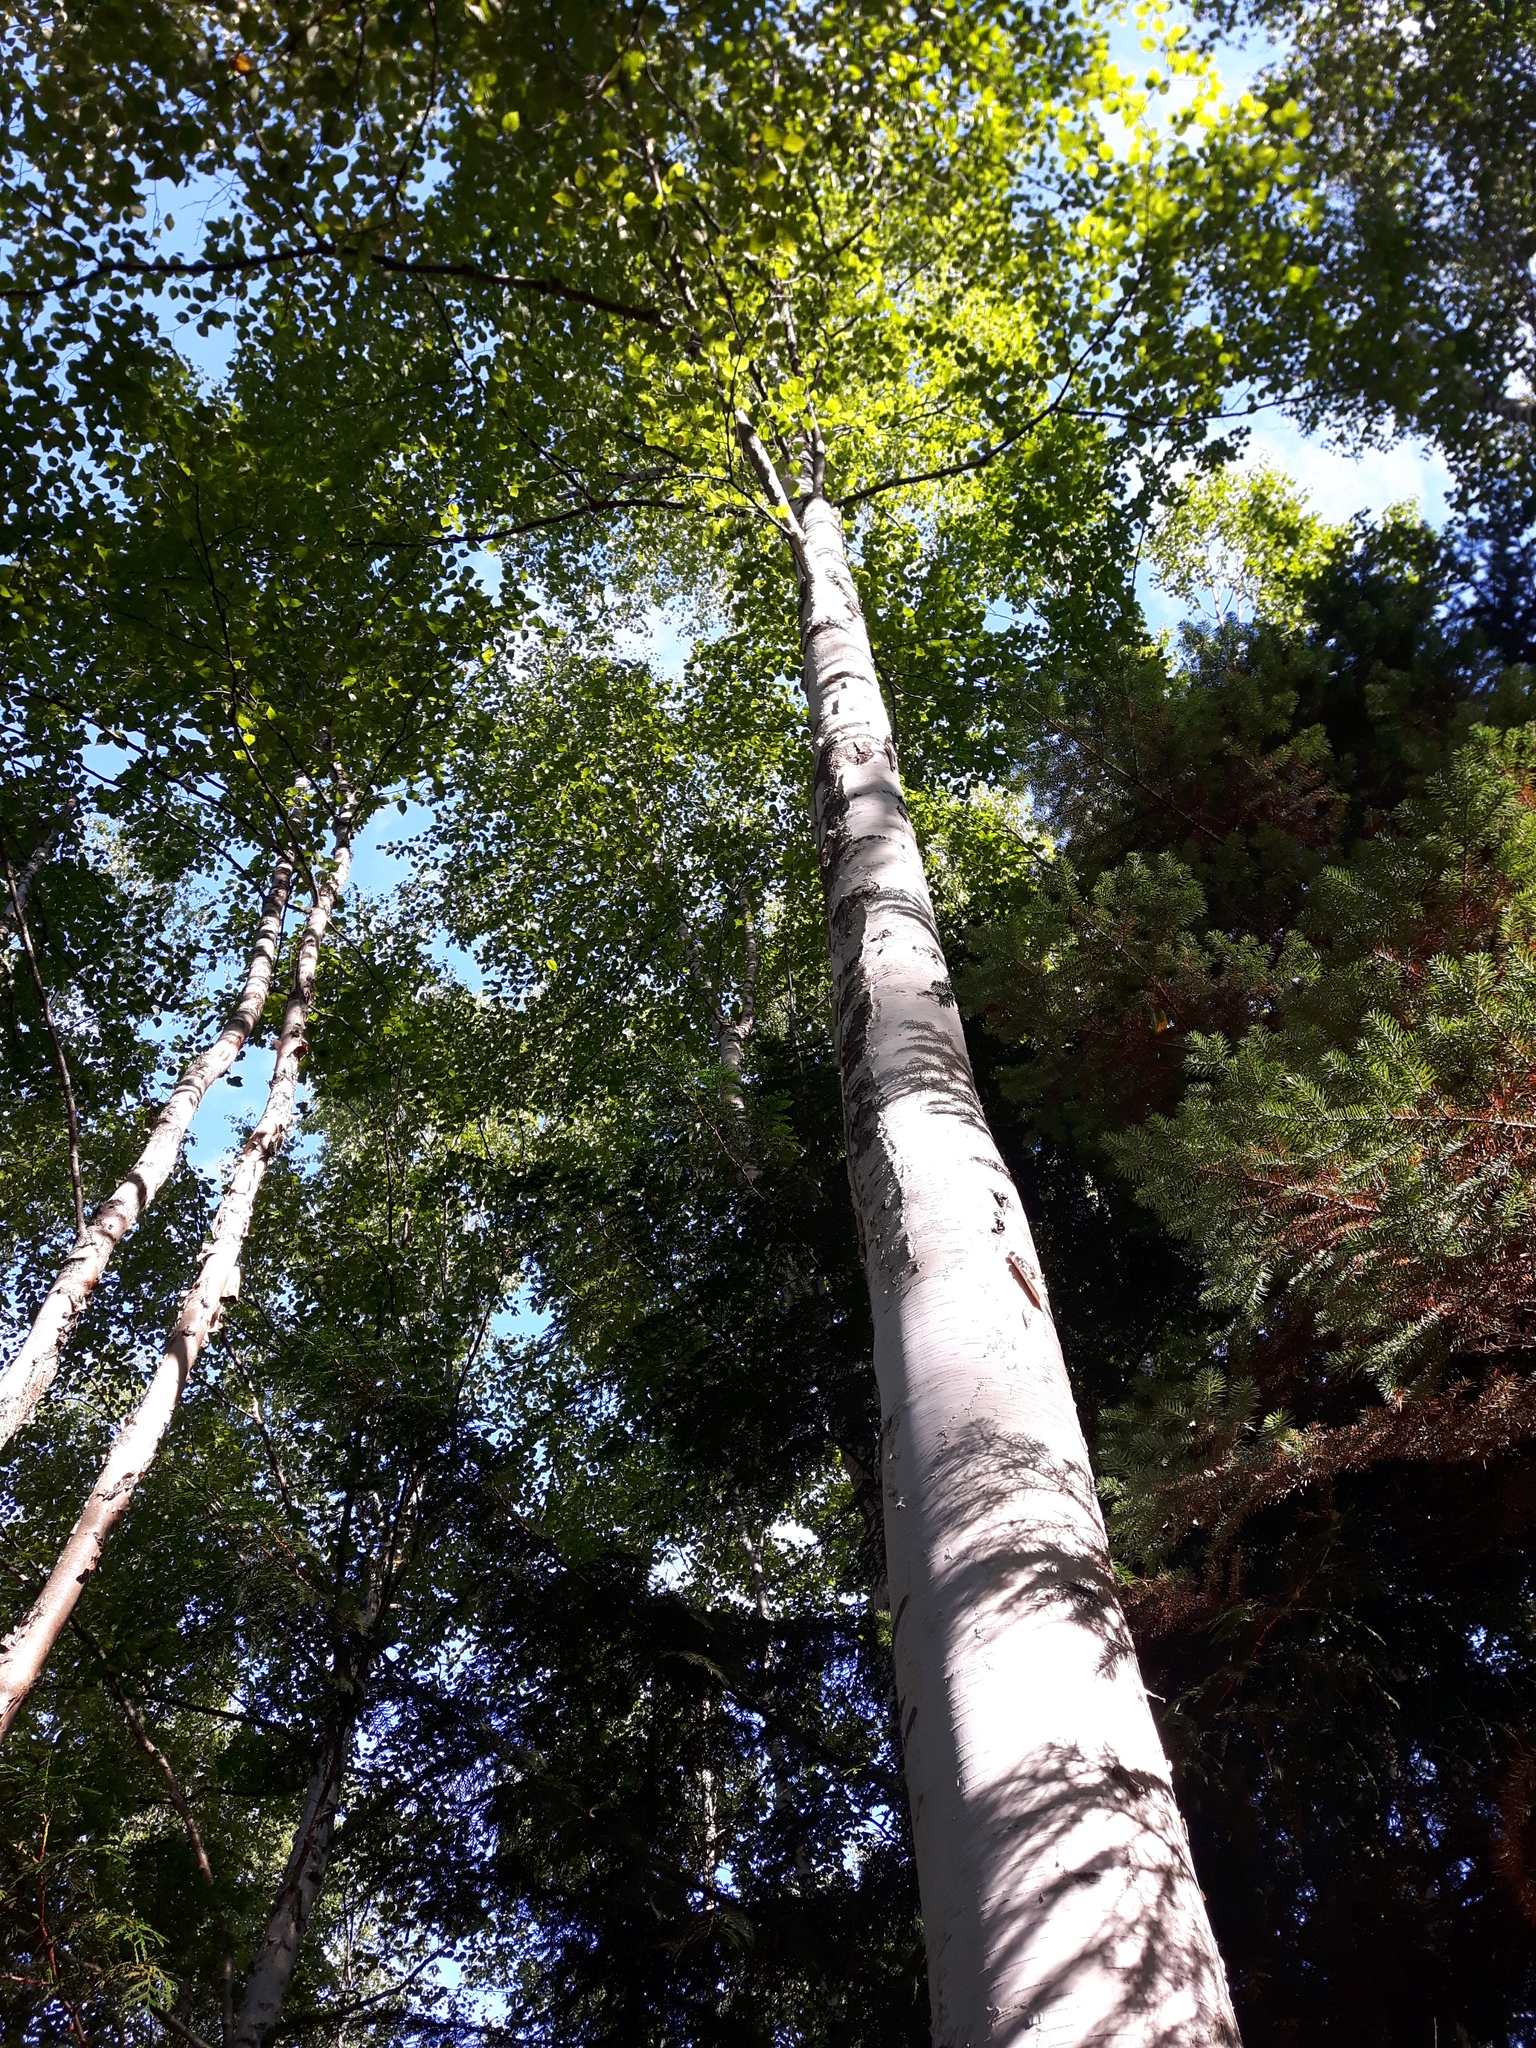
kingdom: Plantae
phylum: Tracheophyta
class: Magnoliopsida
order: Fagales
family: Betulaceae
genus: Betula
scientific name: Betula papyrifera
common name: Paper birch
